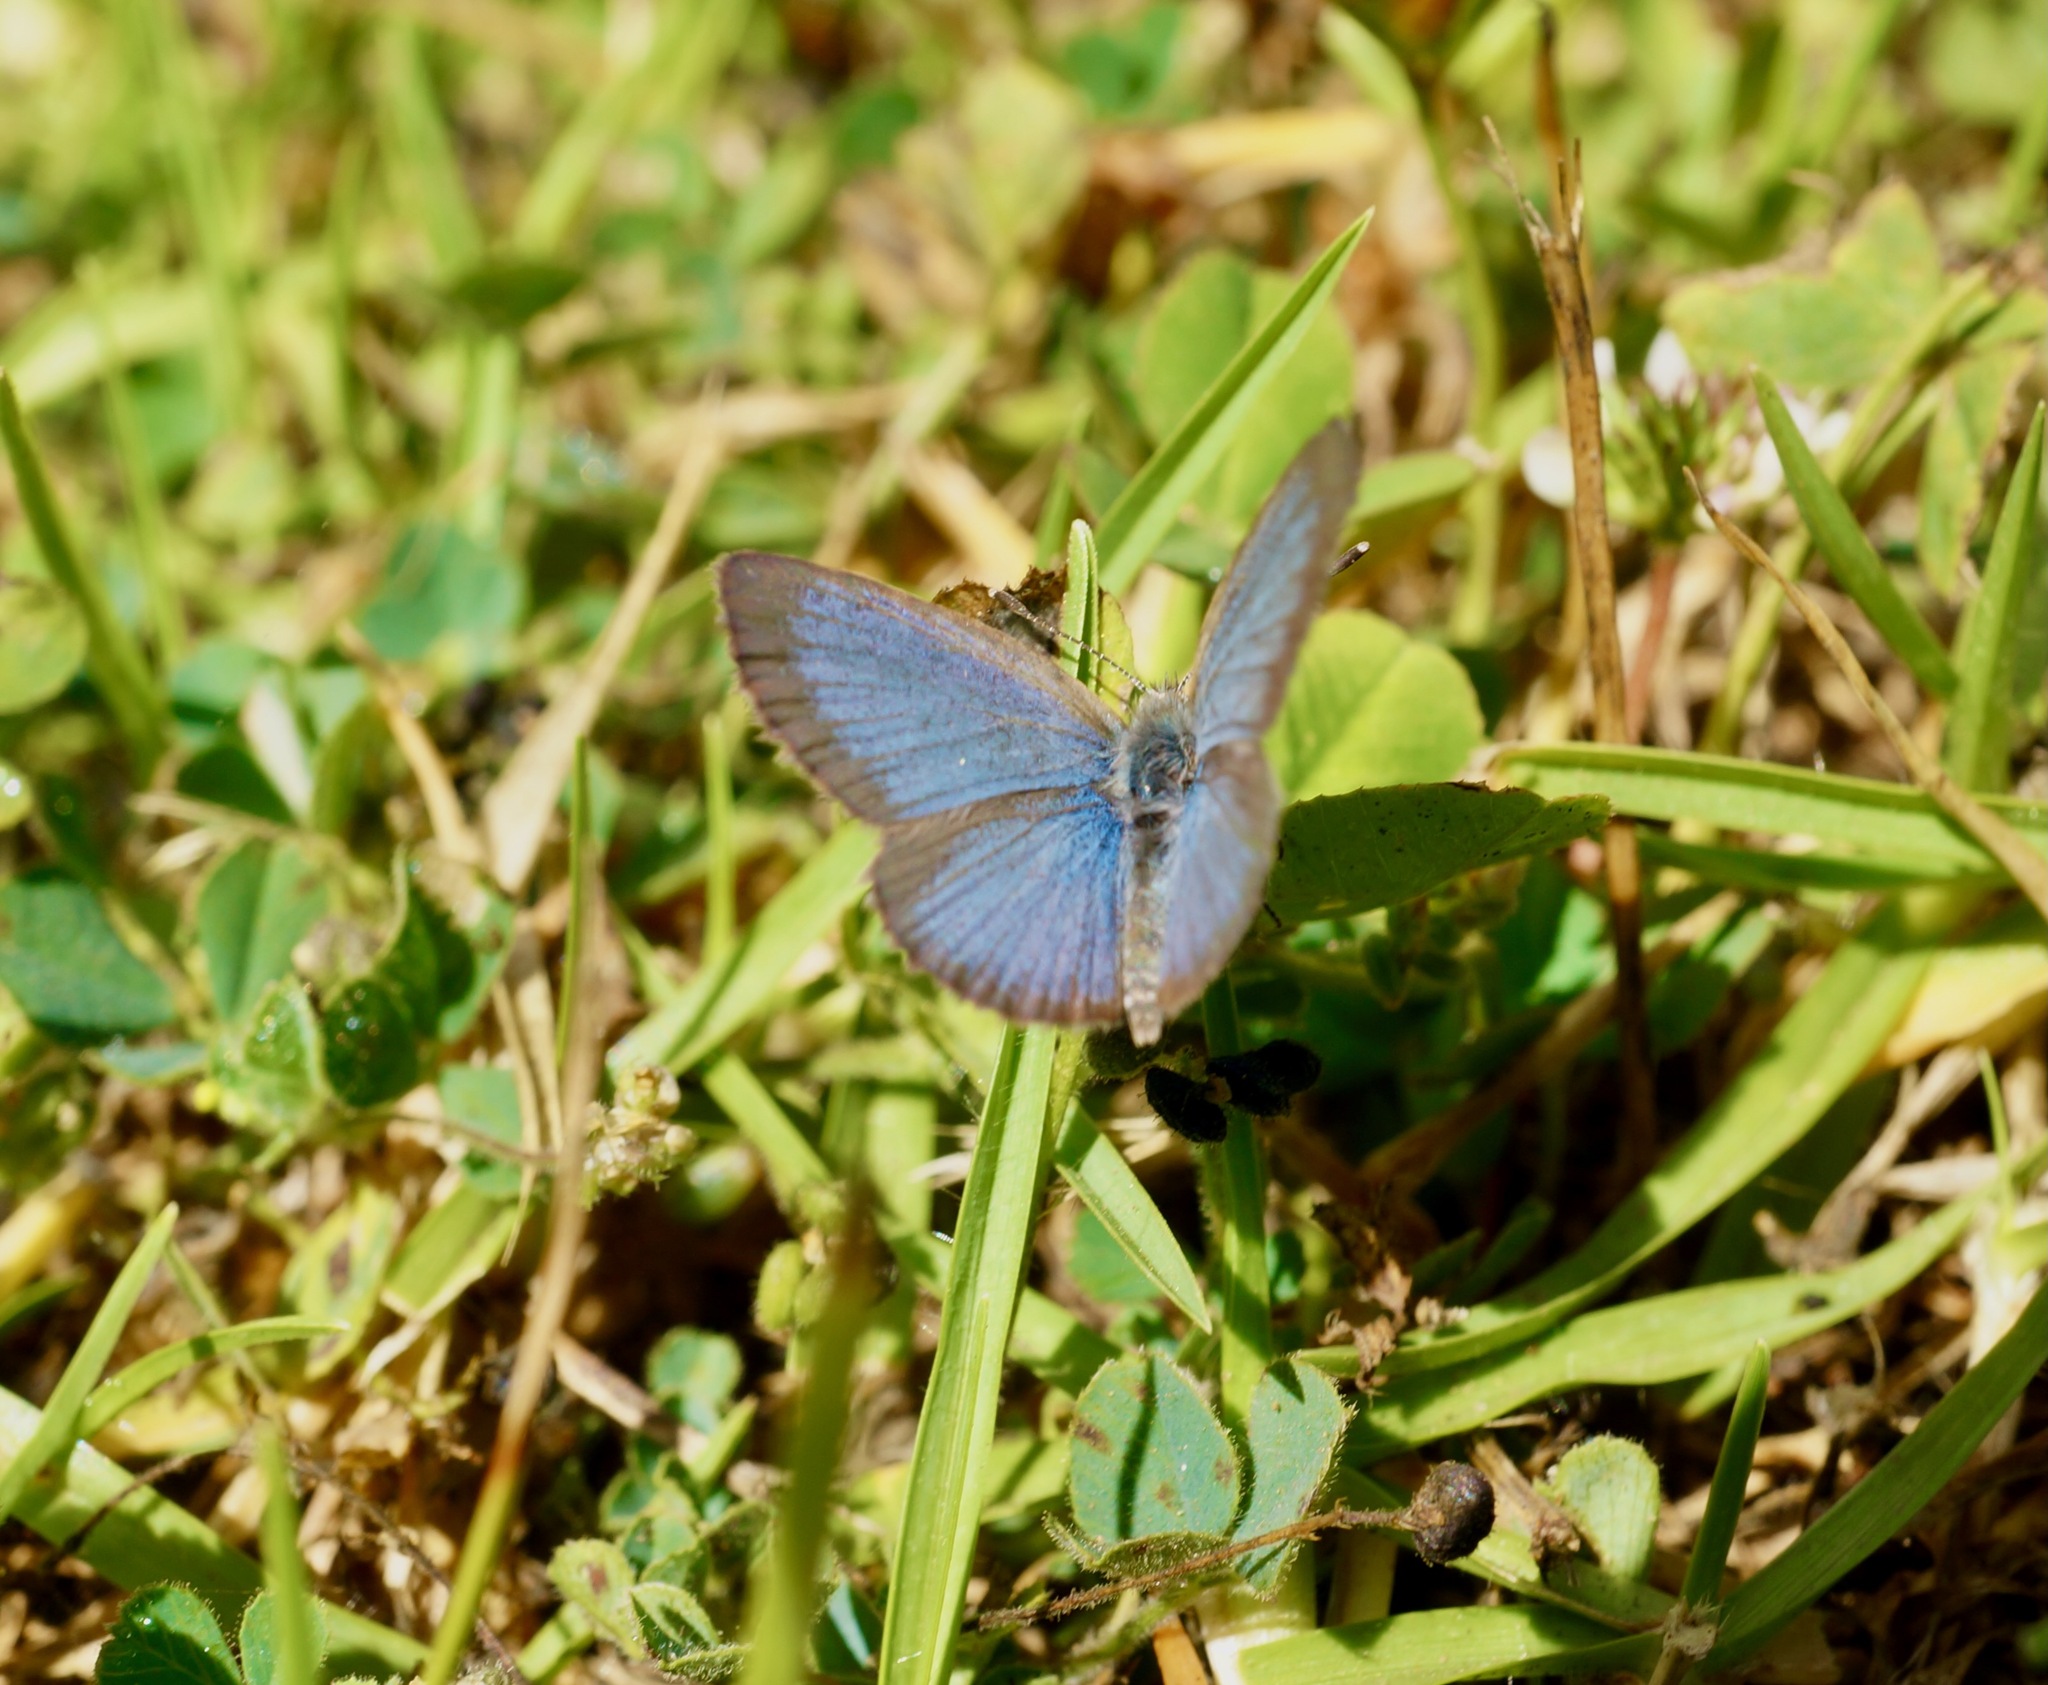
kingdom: Animalia
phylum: Arthropoda
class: Insecta
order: Lepidoptera
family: Lycaenidae
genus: Zizina
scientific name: Zizina labradus
